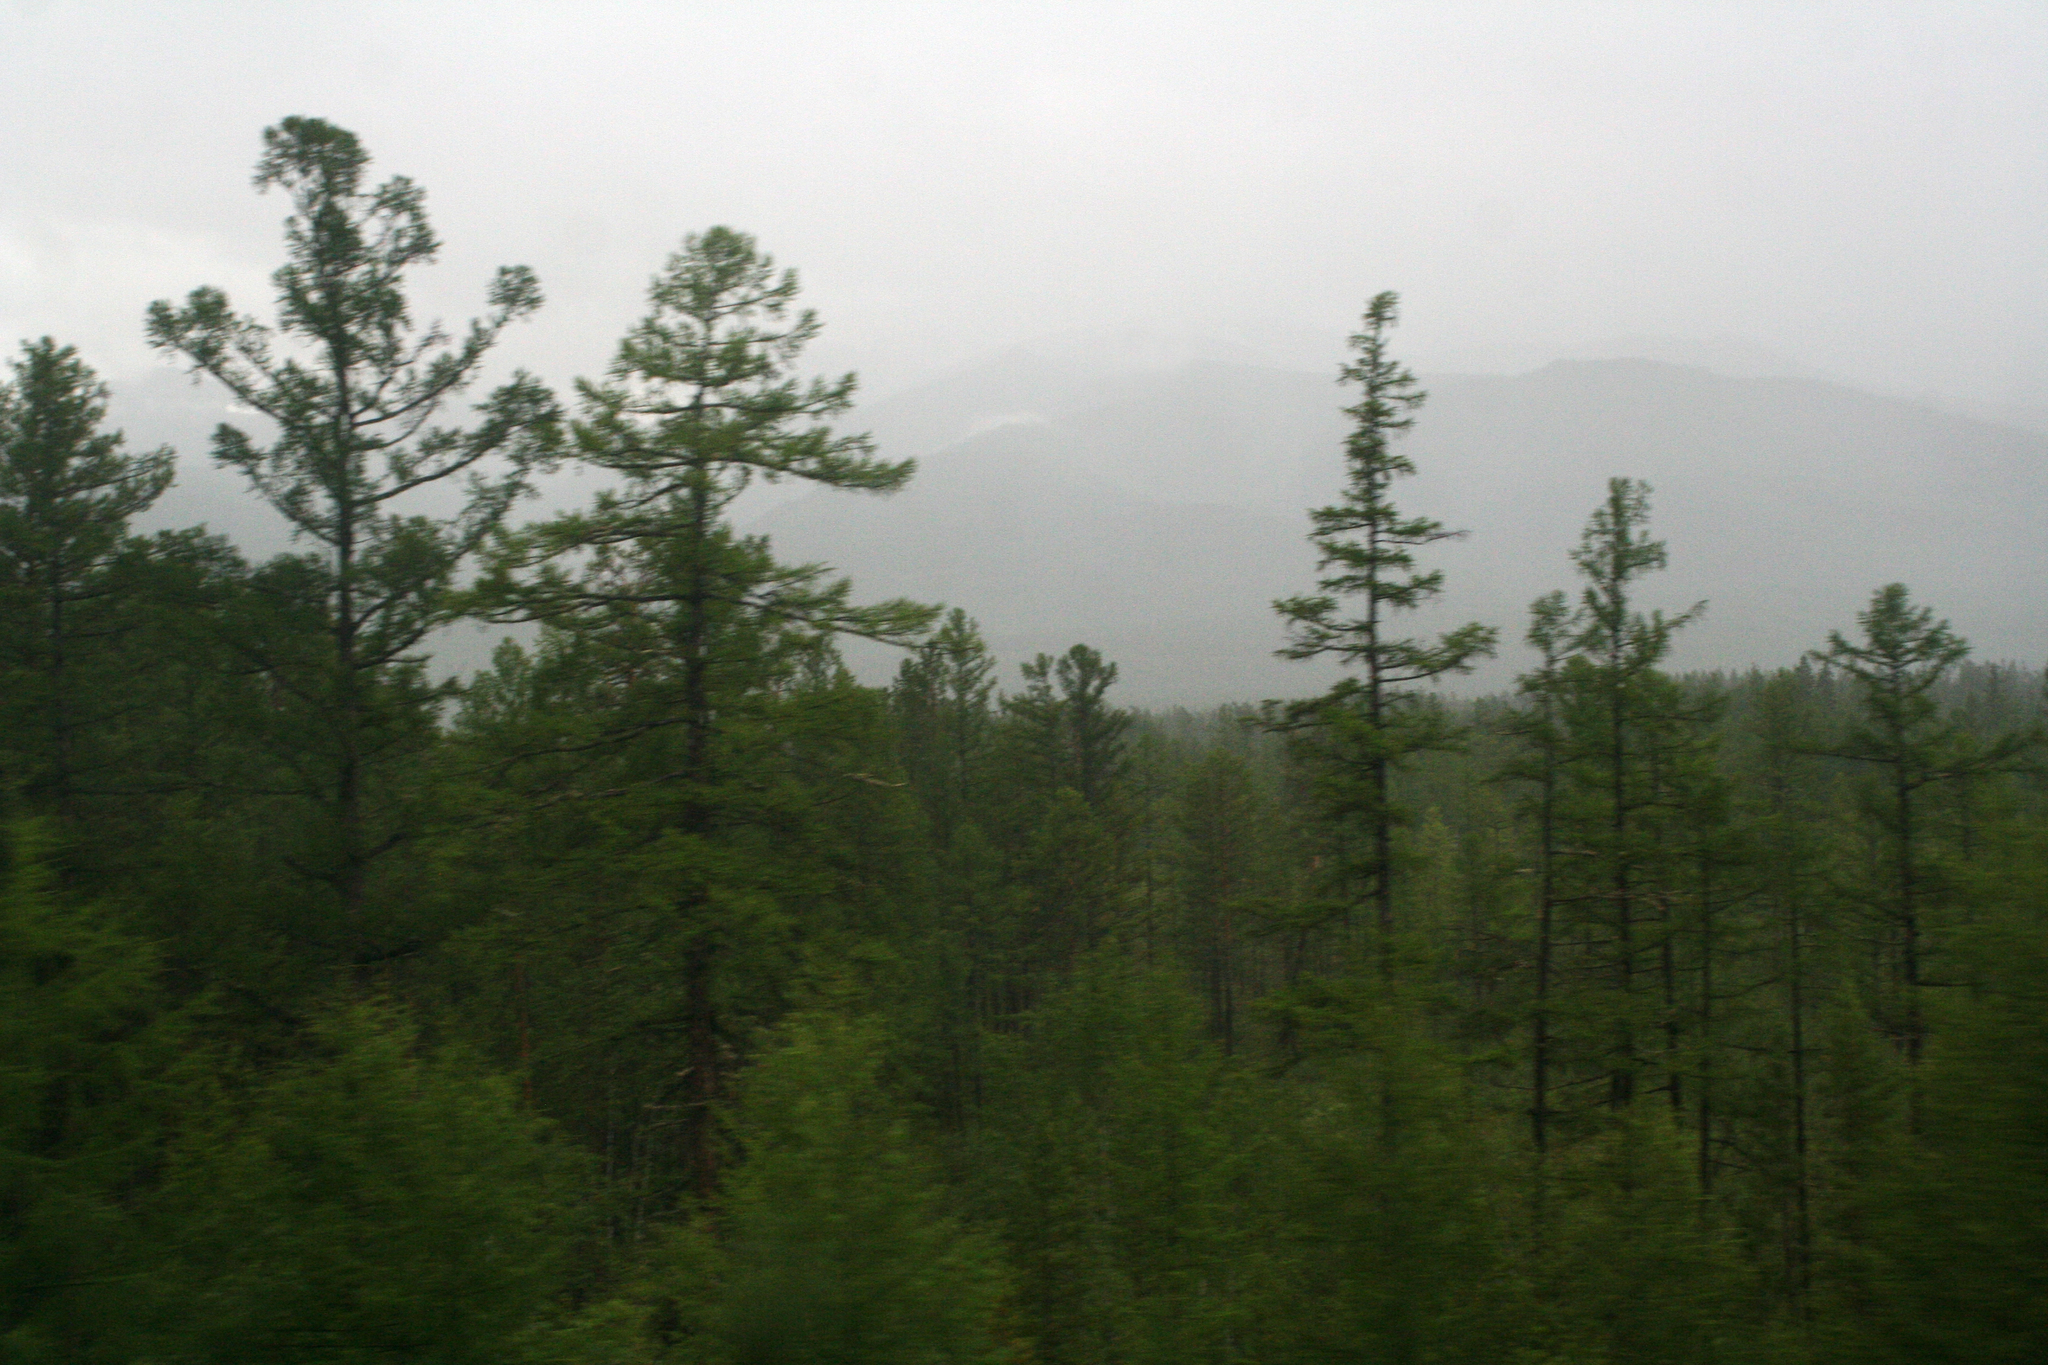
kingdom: Plantae
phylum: Tracheophyta
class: Pinopsida
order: Pinales
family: Pinaceae
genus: Larix
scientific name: Larix gmelinii
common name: Dahurian larch
